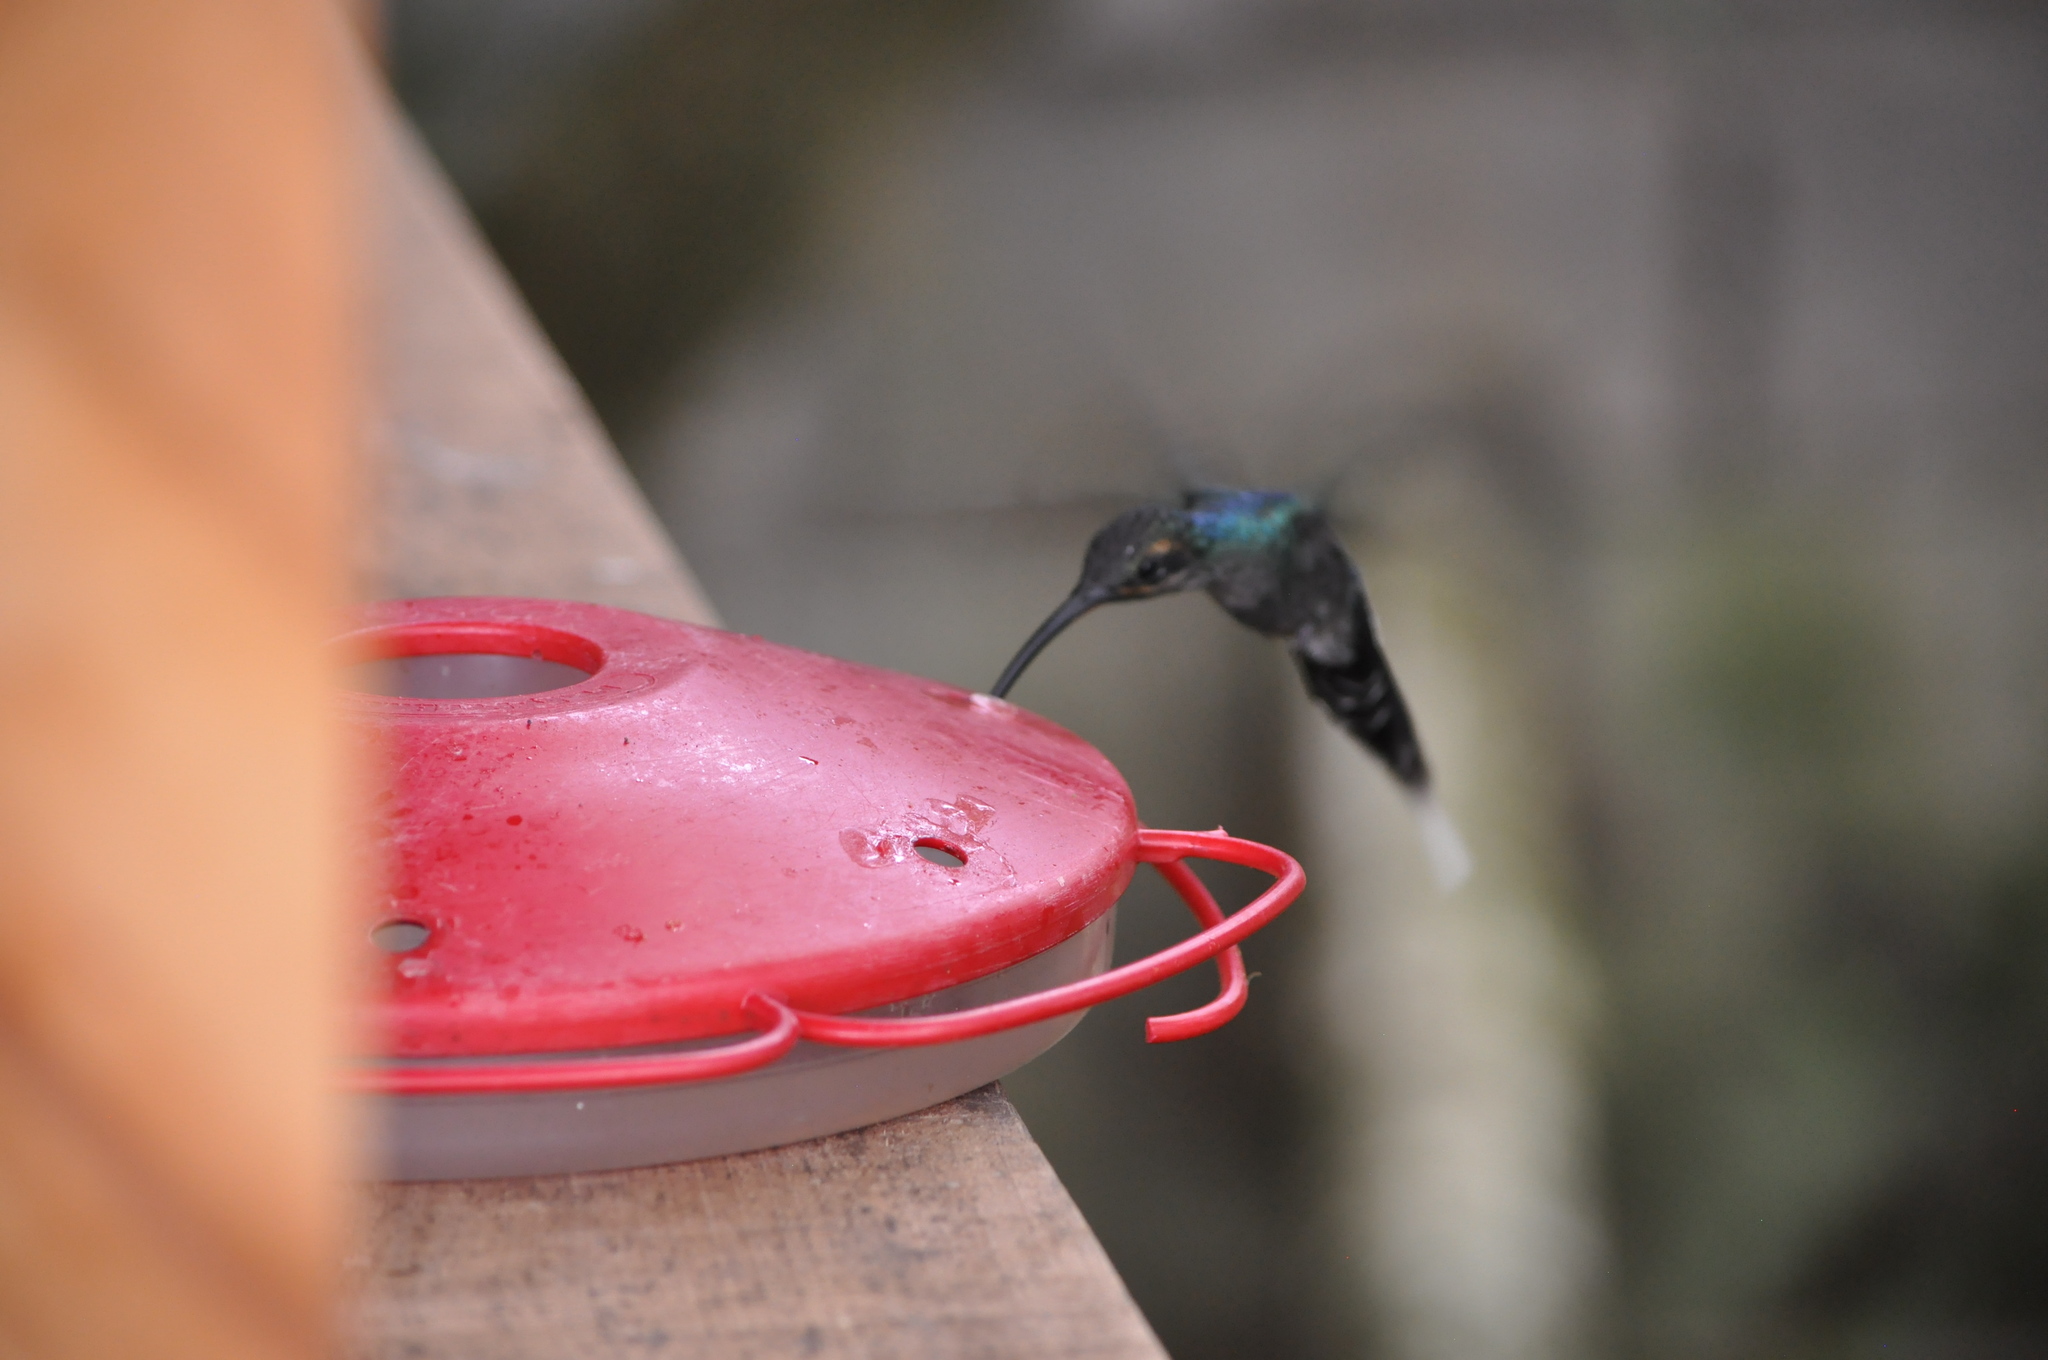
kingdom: Animalia
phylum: Chordata
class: Aves
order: Apodiformes
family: Trochilidae
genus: Phaethornis
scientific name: Phaethornis guy
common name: Green hermit
